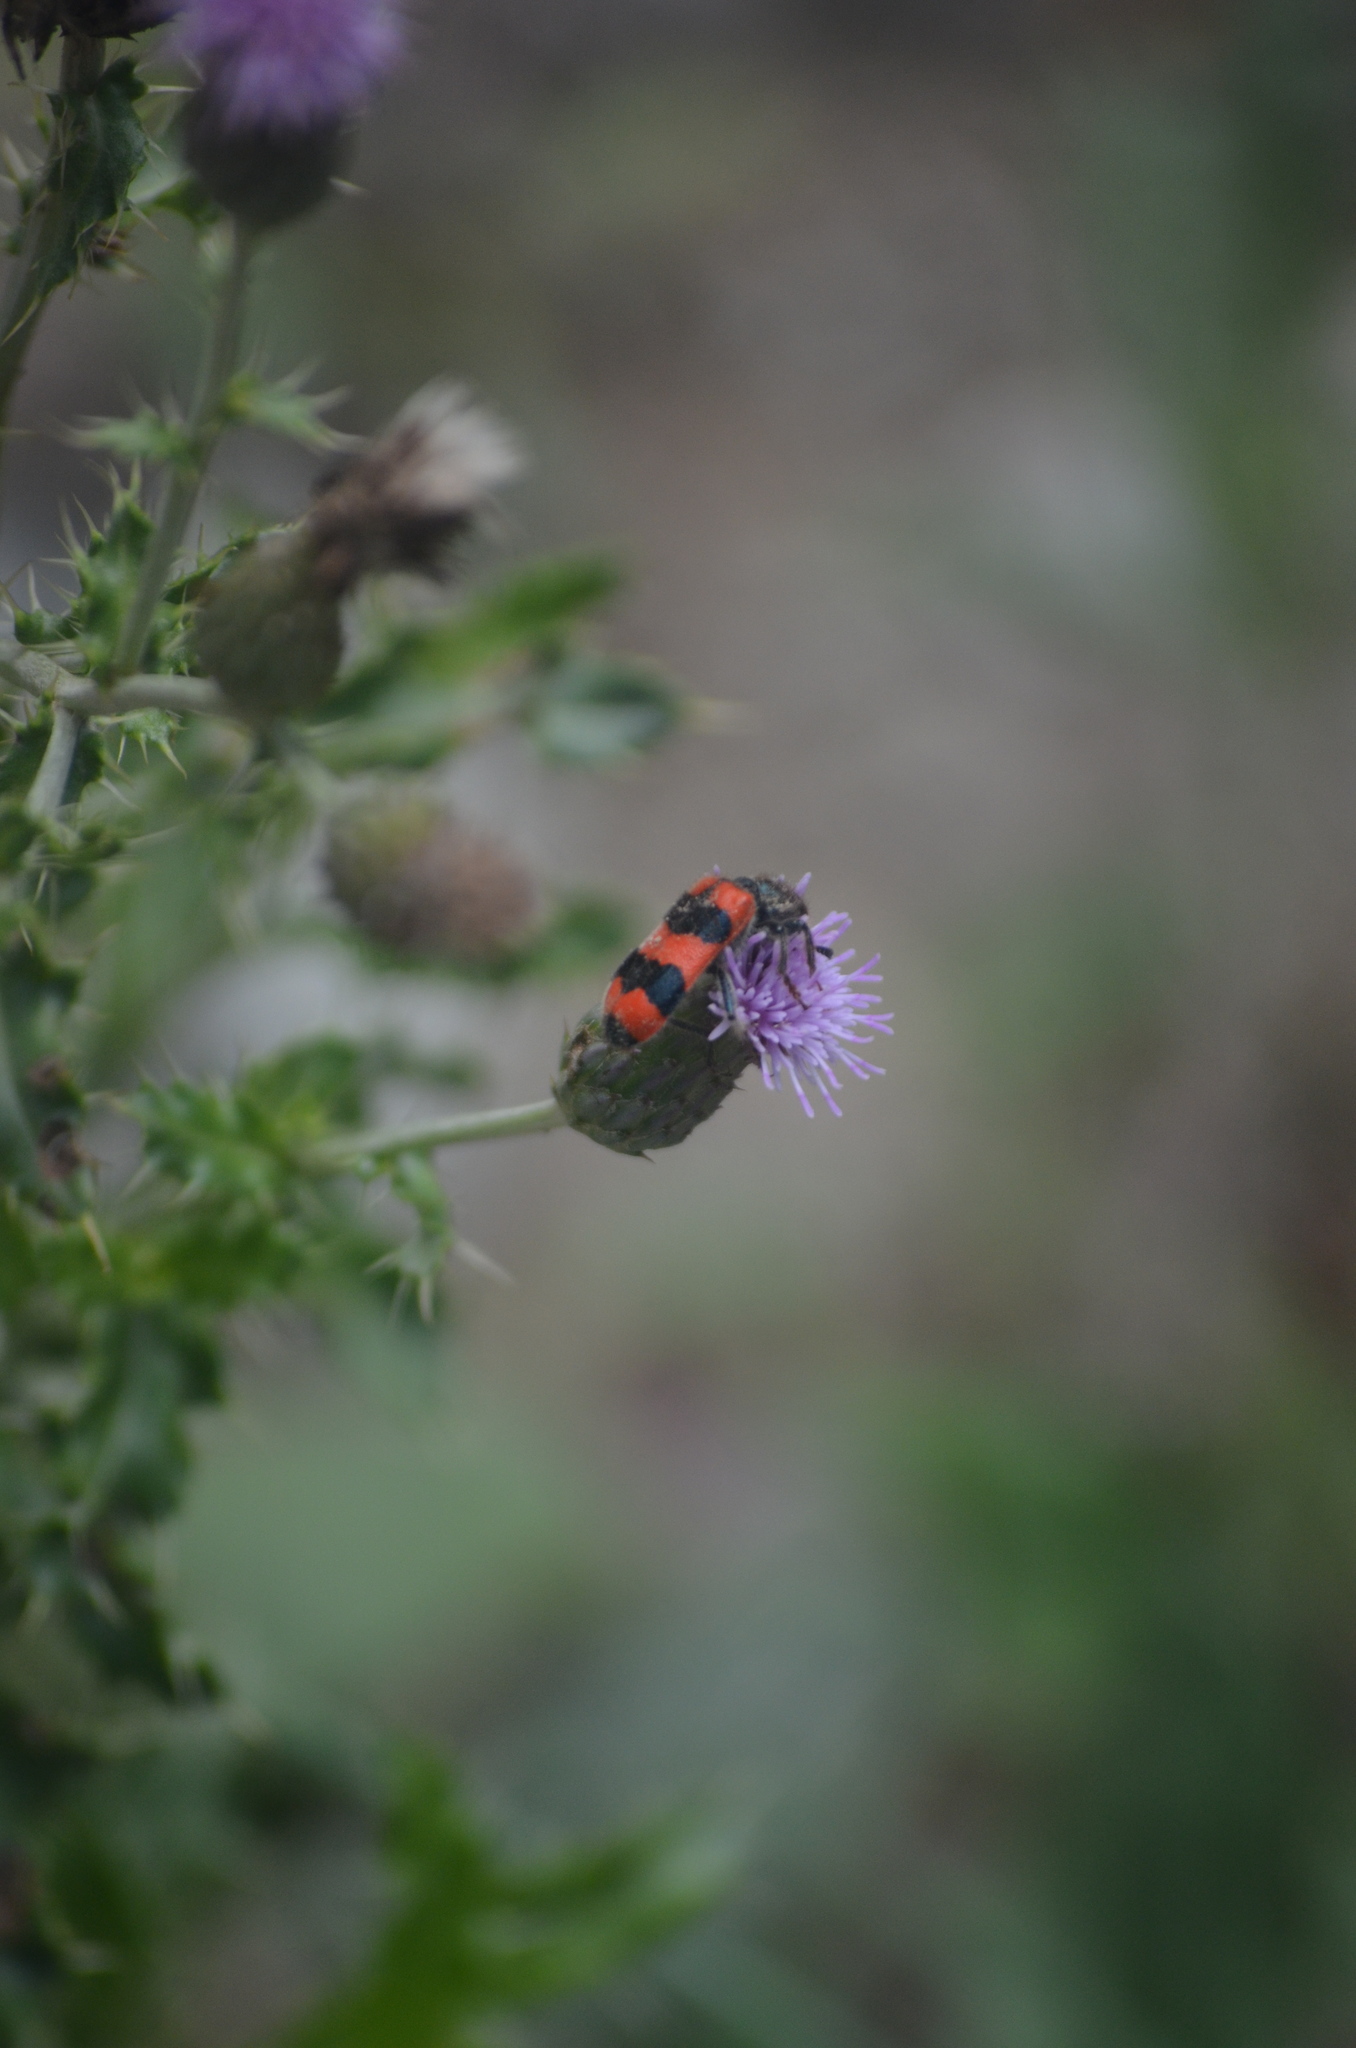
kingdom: Animalia
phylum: Arthropoda
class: Insecta
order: Coleoptera
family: Cleridae
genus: Trichodes
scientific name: Trichodes apiarius
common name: Bee-eating beetle
